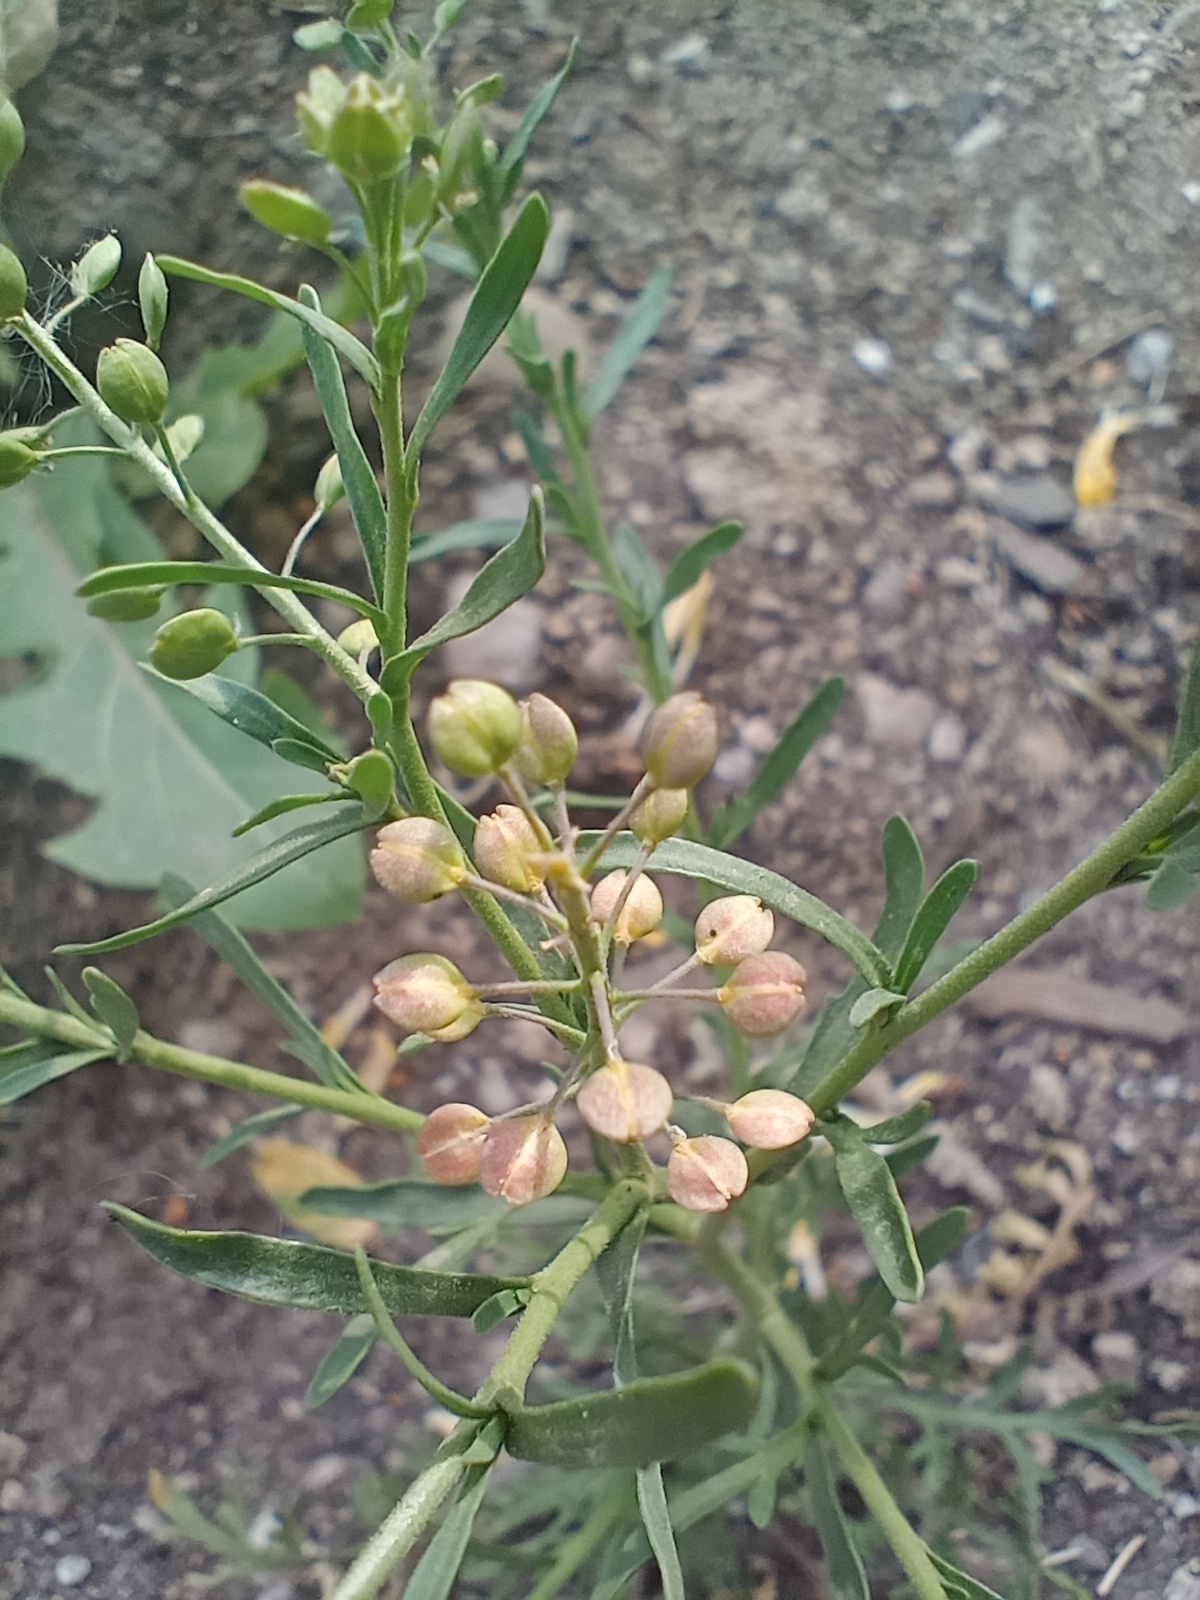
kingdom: Plantae
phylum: Tracheophyta
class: Magnoliopsida
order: Brassicales
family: Brassicaceae
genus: Lepidium
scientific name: Lepidium ruderale
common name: Narrow-leaved pepperwort
